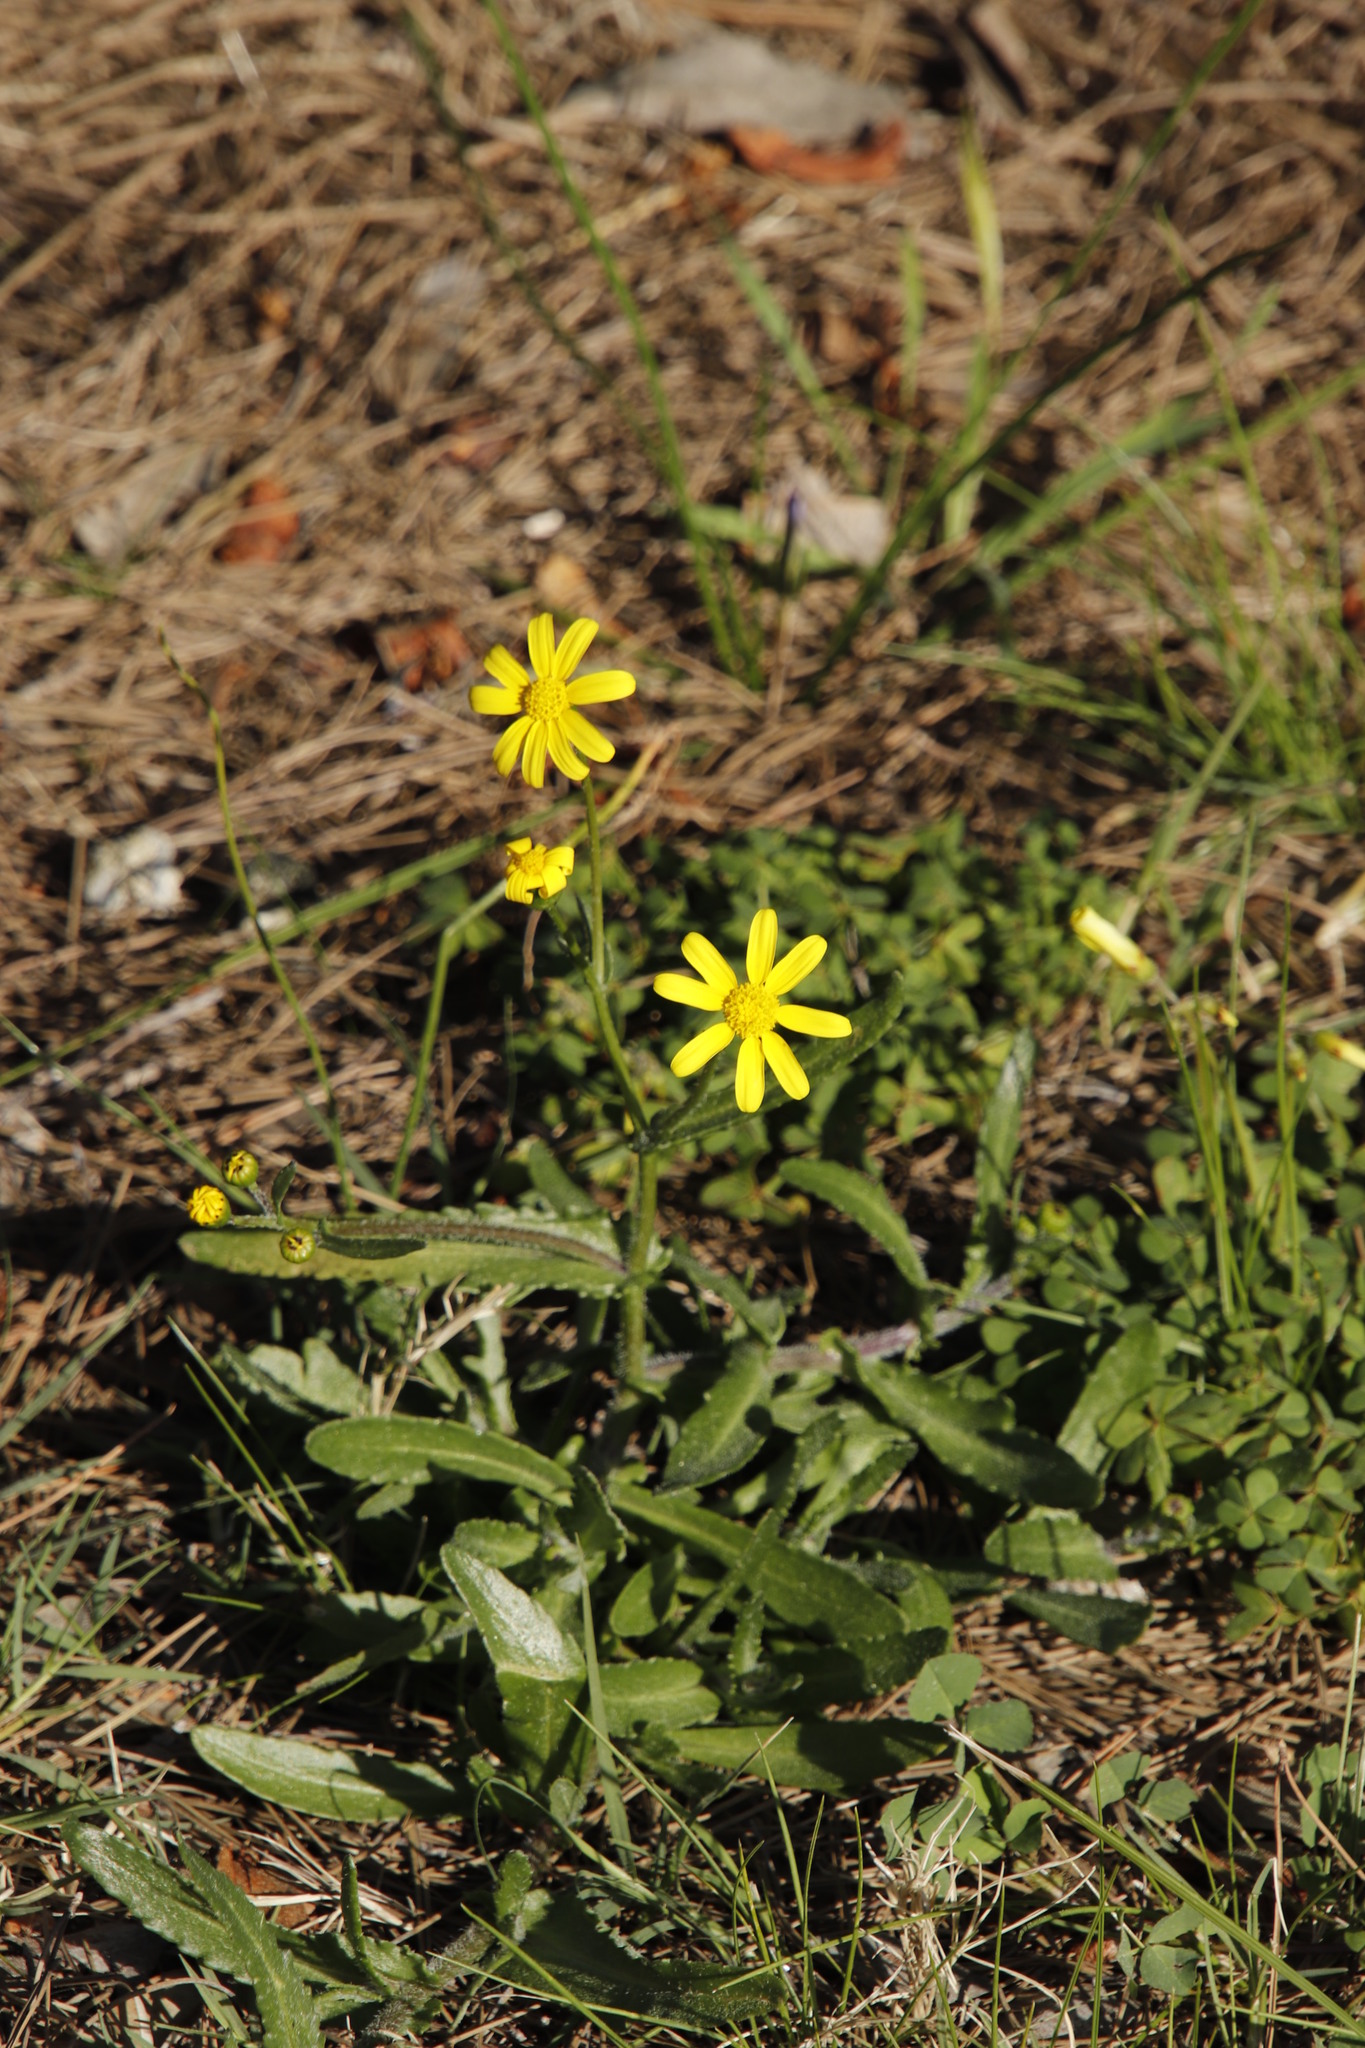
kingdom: Plantae
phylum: Tracheophyta
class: Magnoliopsida
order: Asterales
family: Asteraceae
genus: Senecio
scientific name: Senecio littoreus
